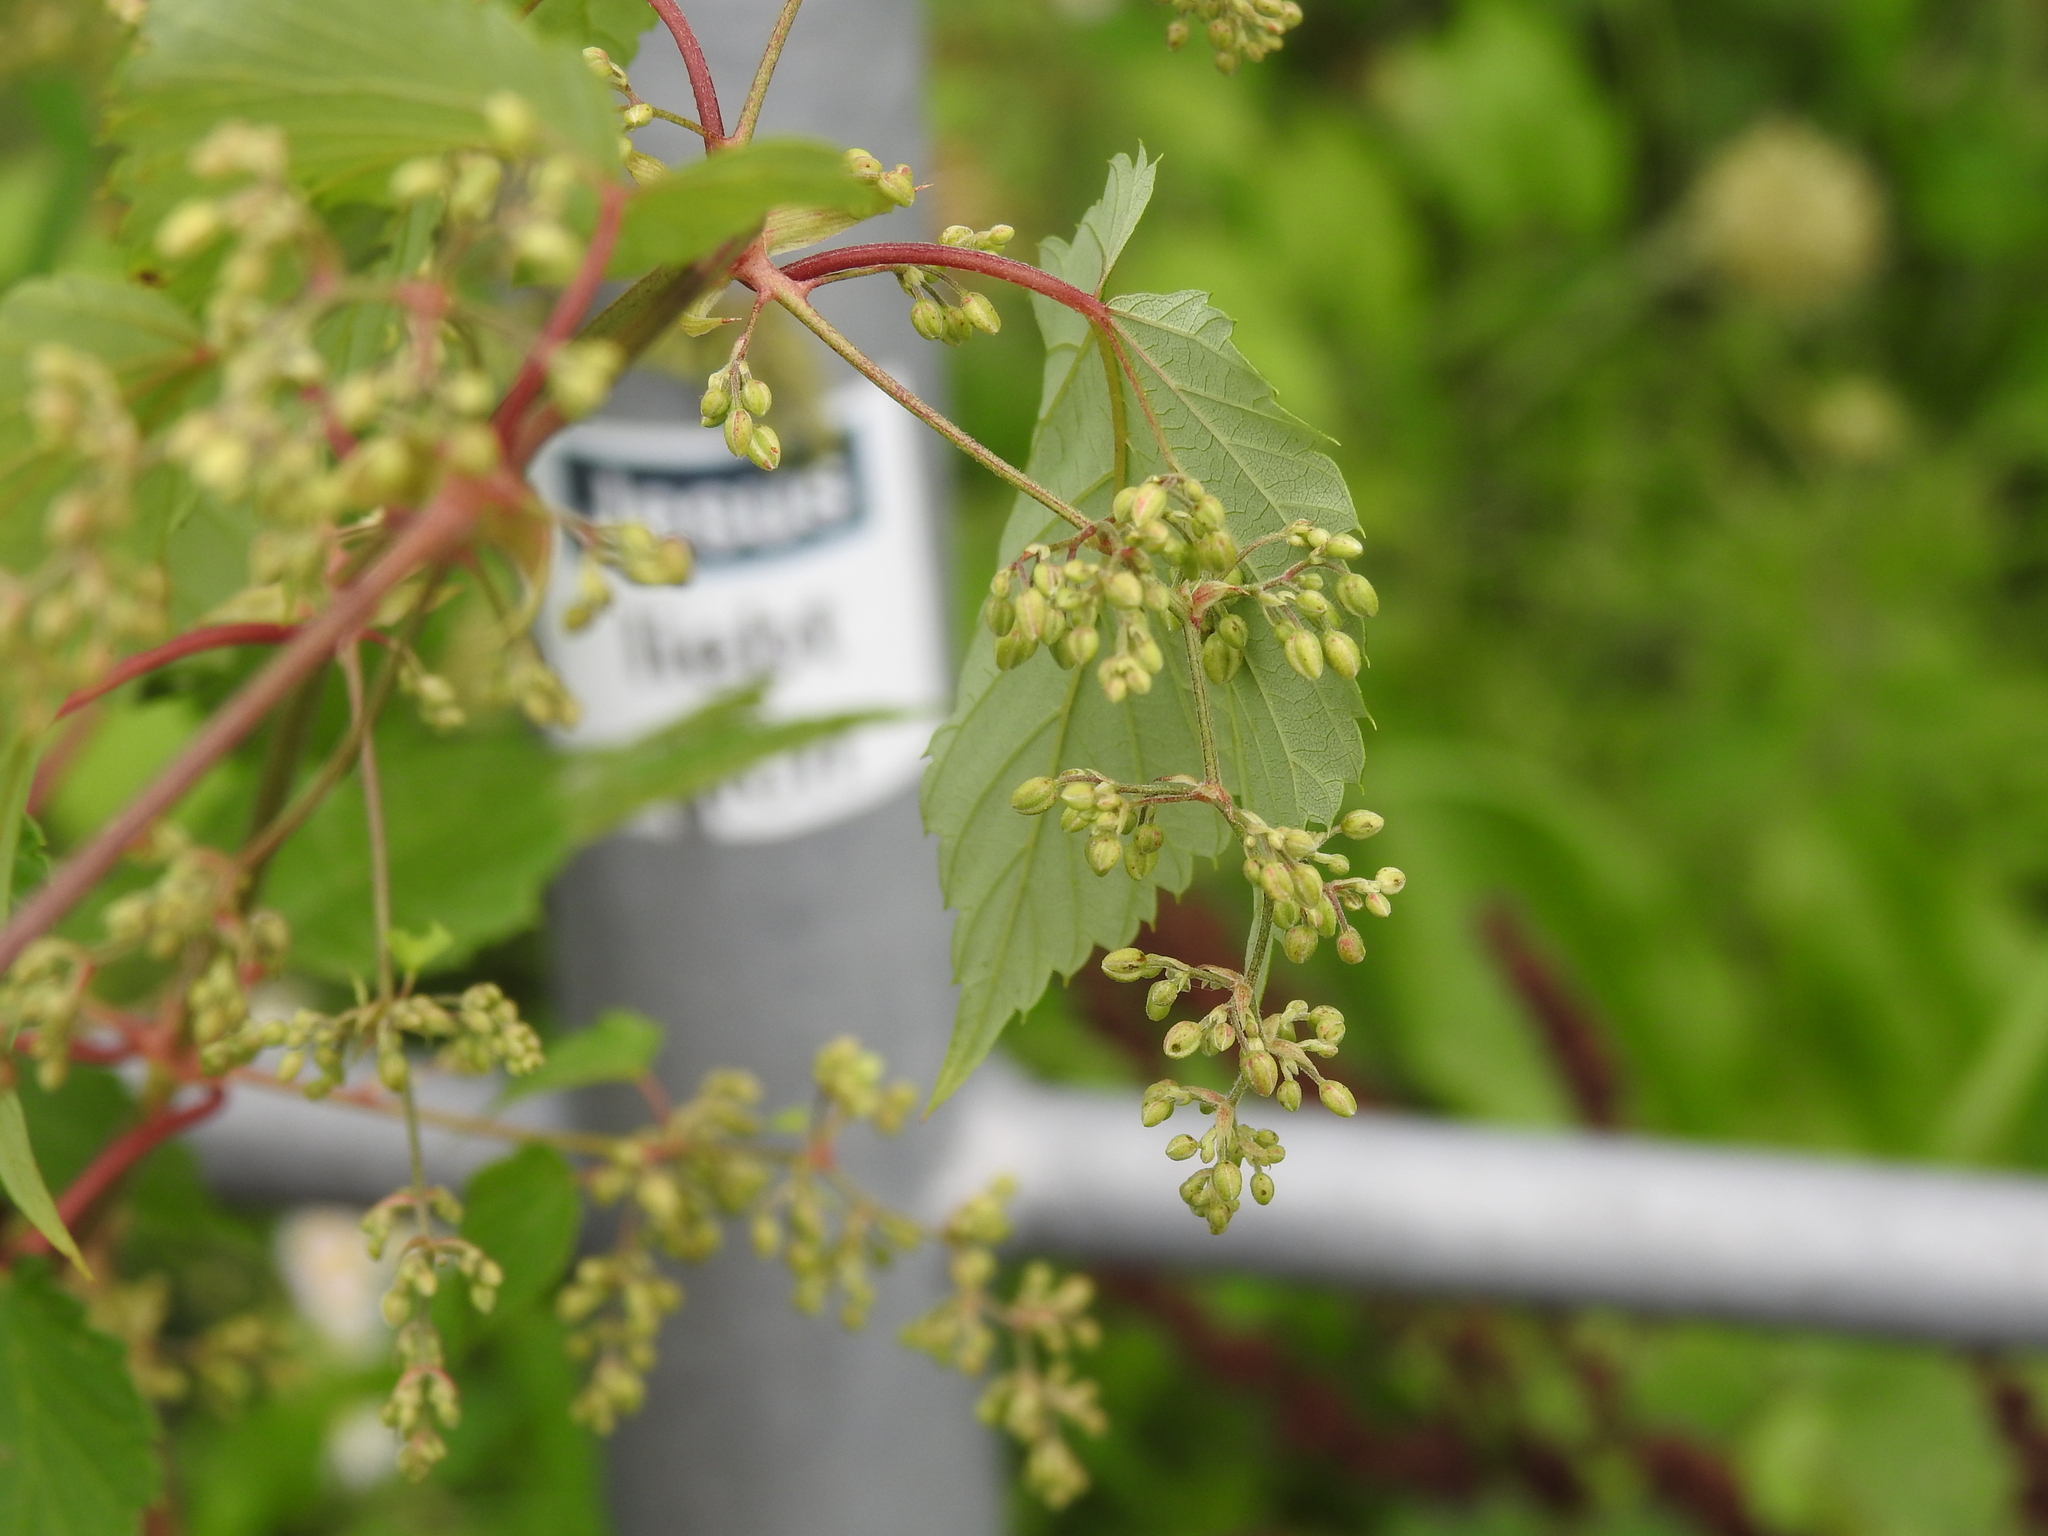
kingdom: Plantae
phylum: Tracheophyta
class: Magnoliopsida
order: Rosales
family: Cannabaceae
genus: Humulus
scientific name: Humulus lupulus
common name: Hop
